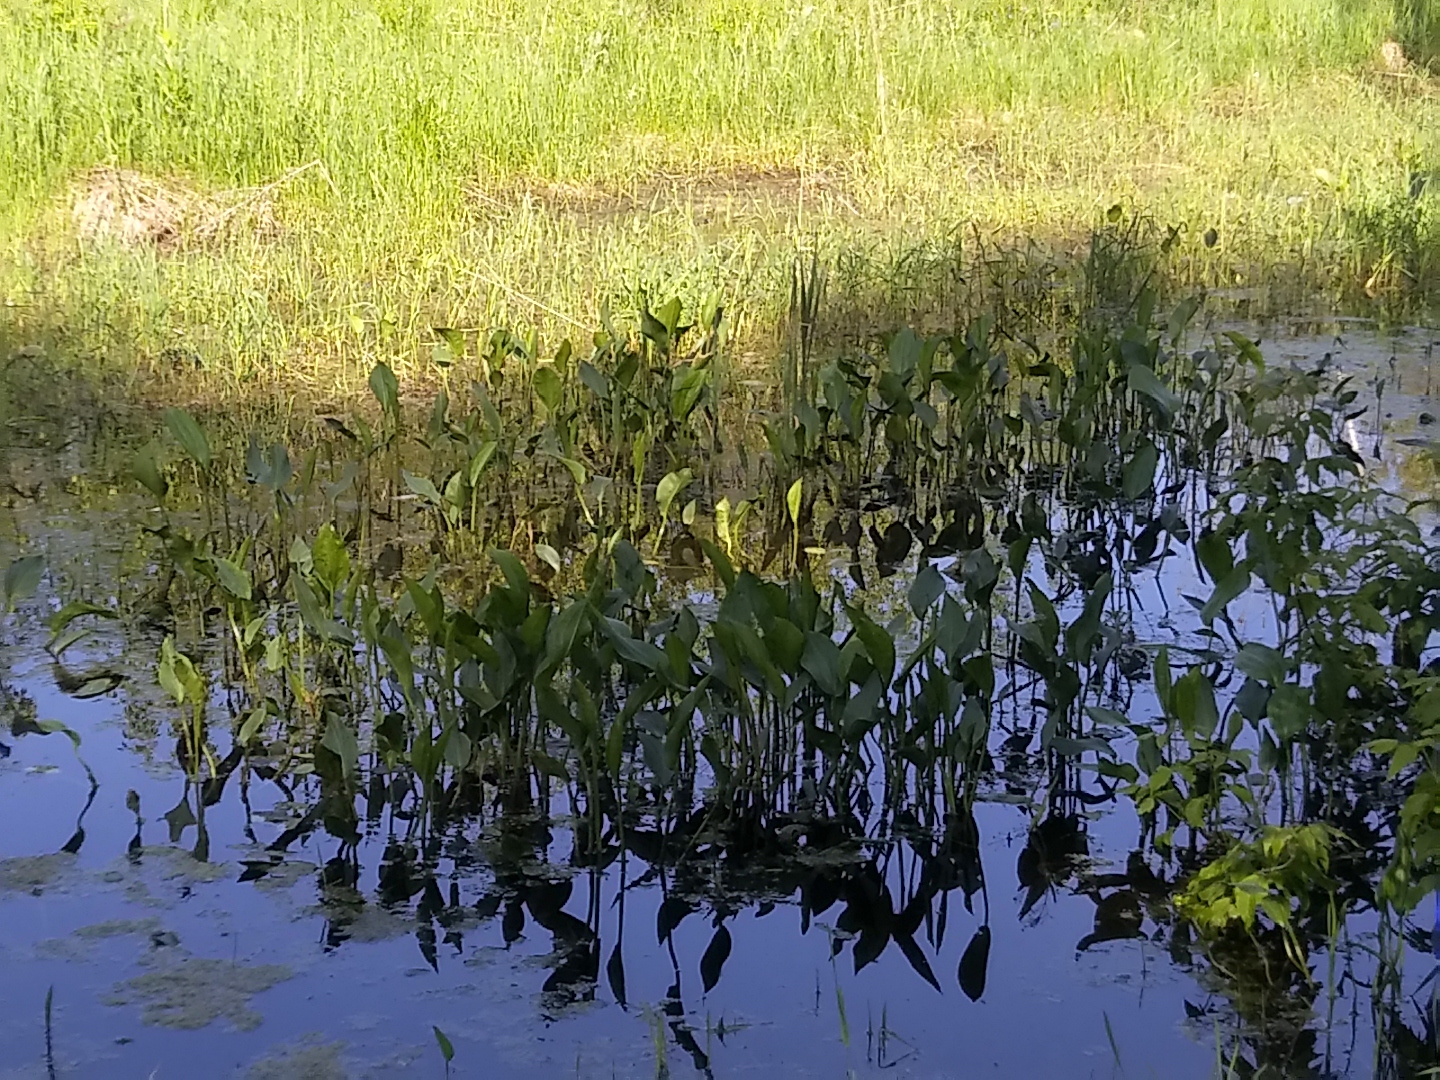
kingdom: Plantae
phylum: Tracheophyta
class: Liliopsida
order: Alismatales
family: Alismataceae
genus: Alisma
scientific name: Alisma plantago-aquatica
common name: Water-plantain
